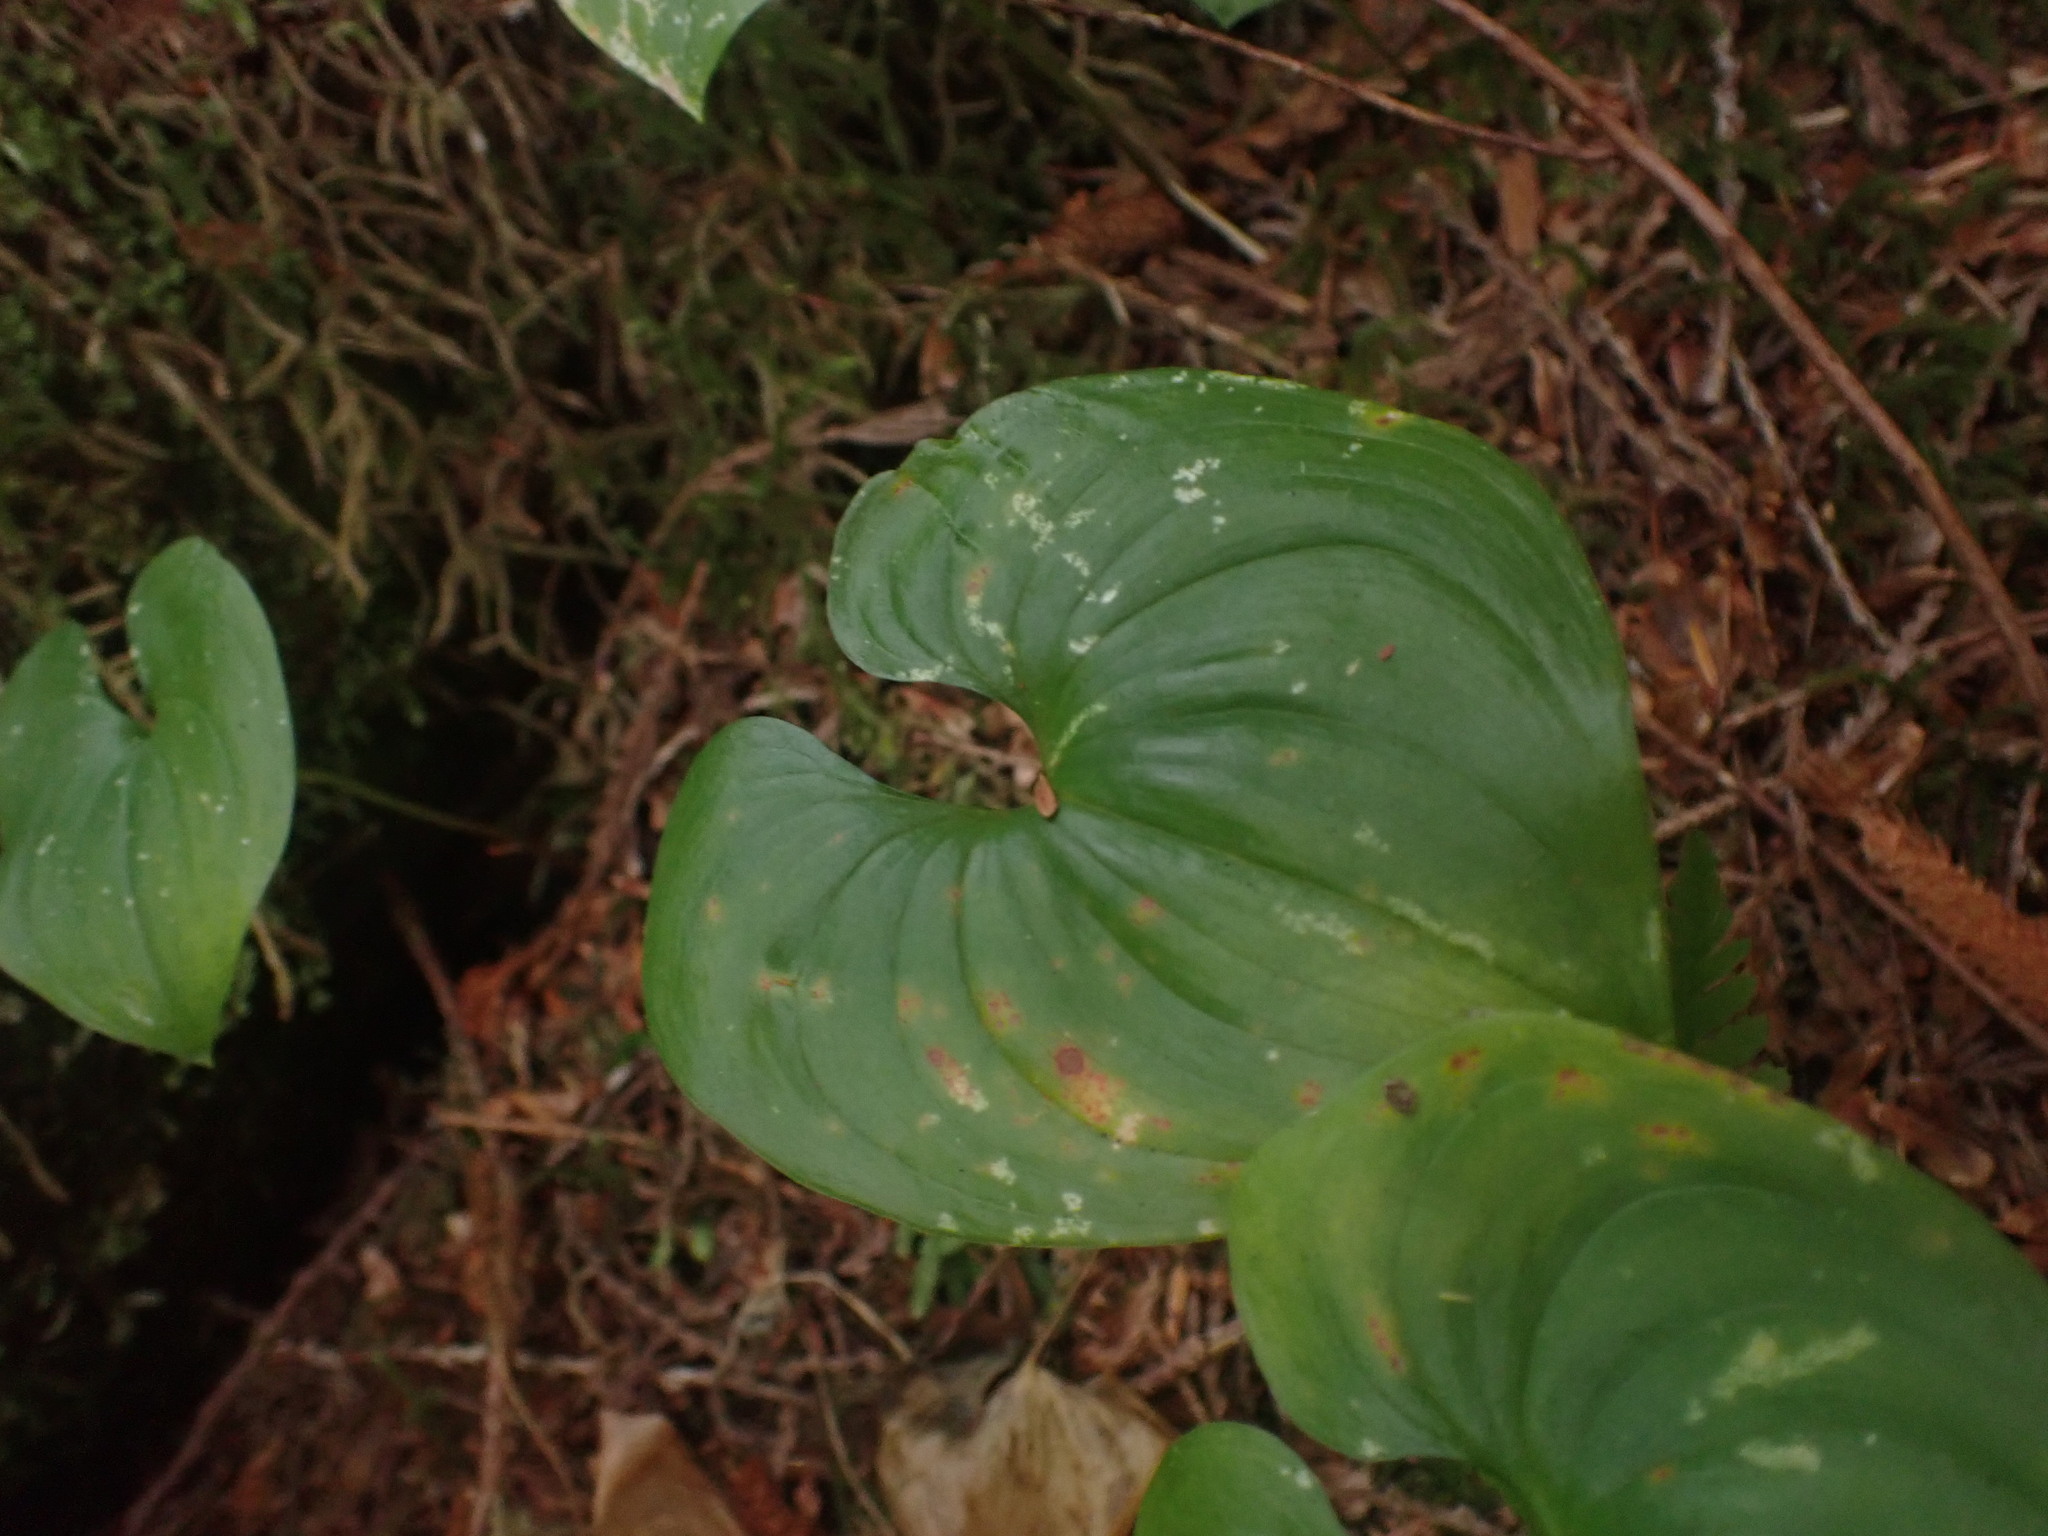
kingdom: Plantae
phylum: Tracheophyta
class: Liliopsida
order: Asparagales
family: Asparagaceae
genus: Maianthemum
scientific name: Maianthemum dilatatum
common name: False lily-of-the-valley
